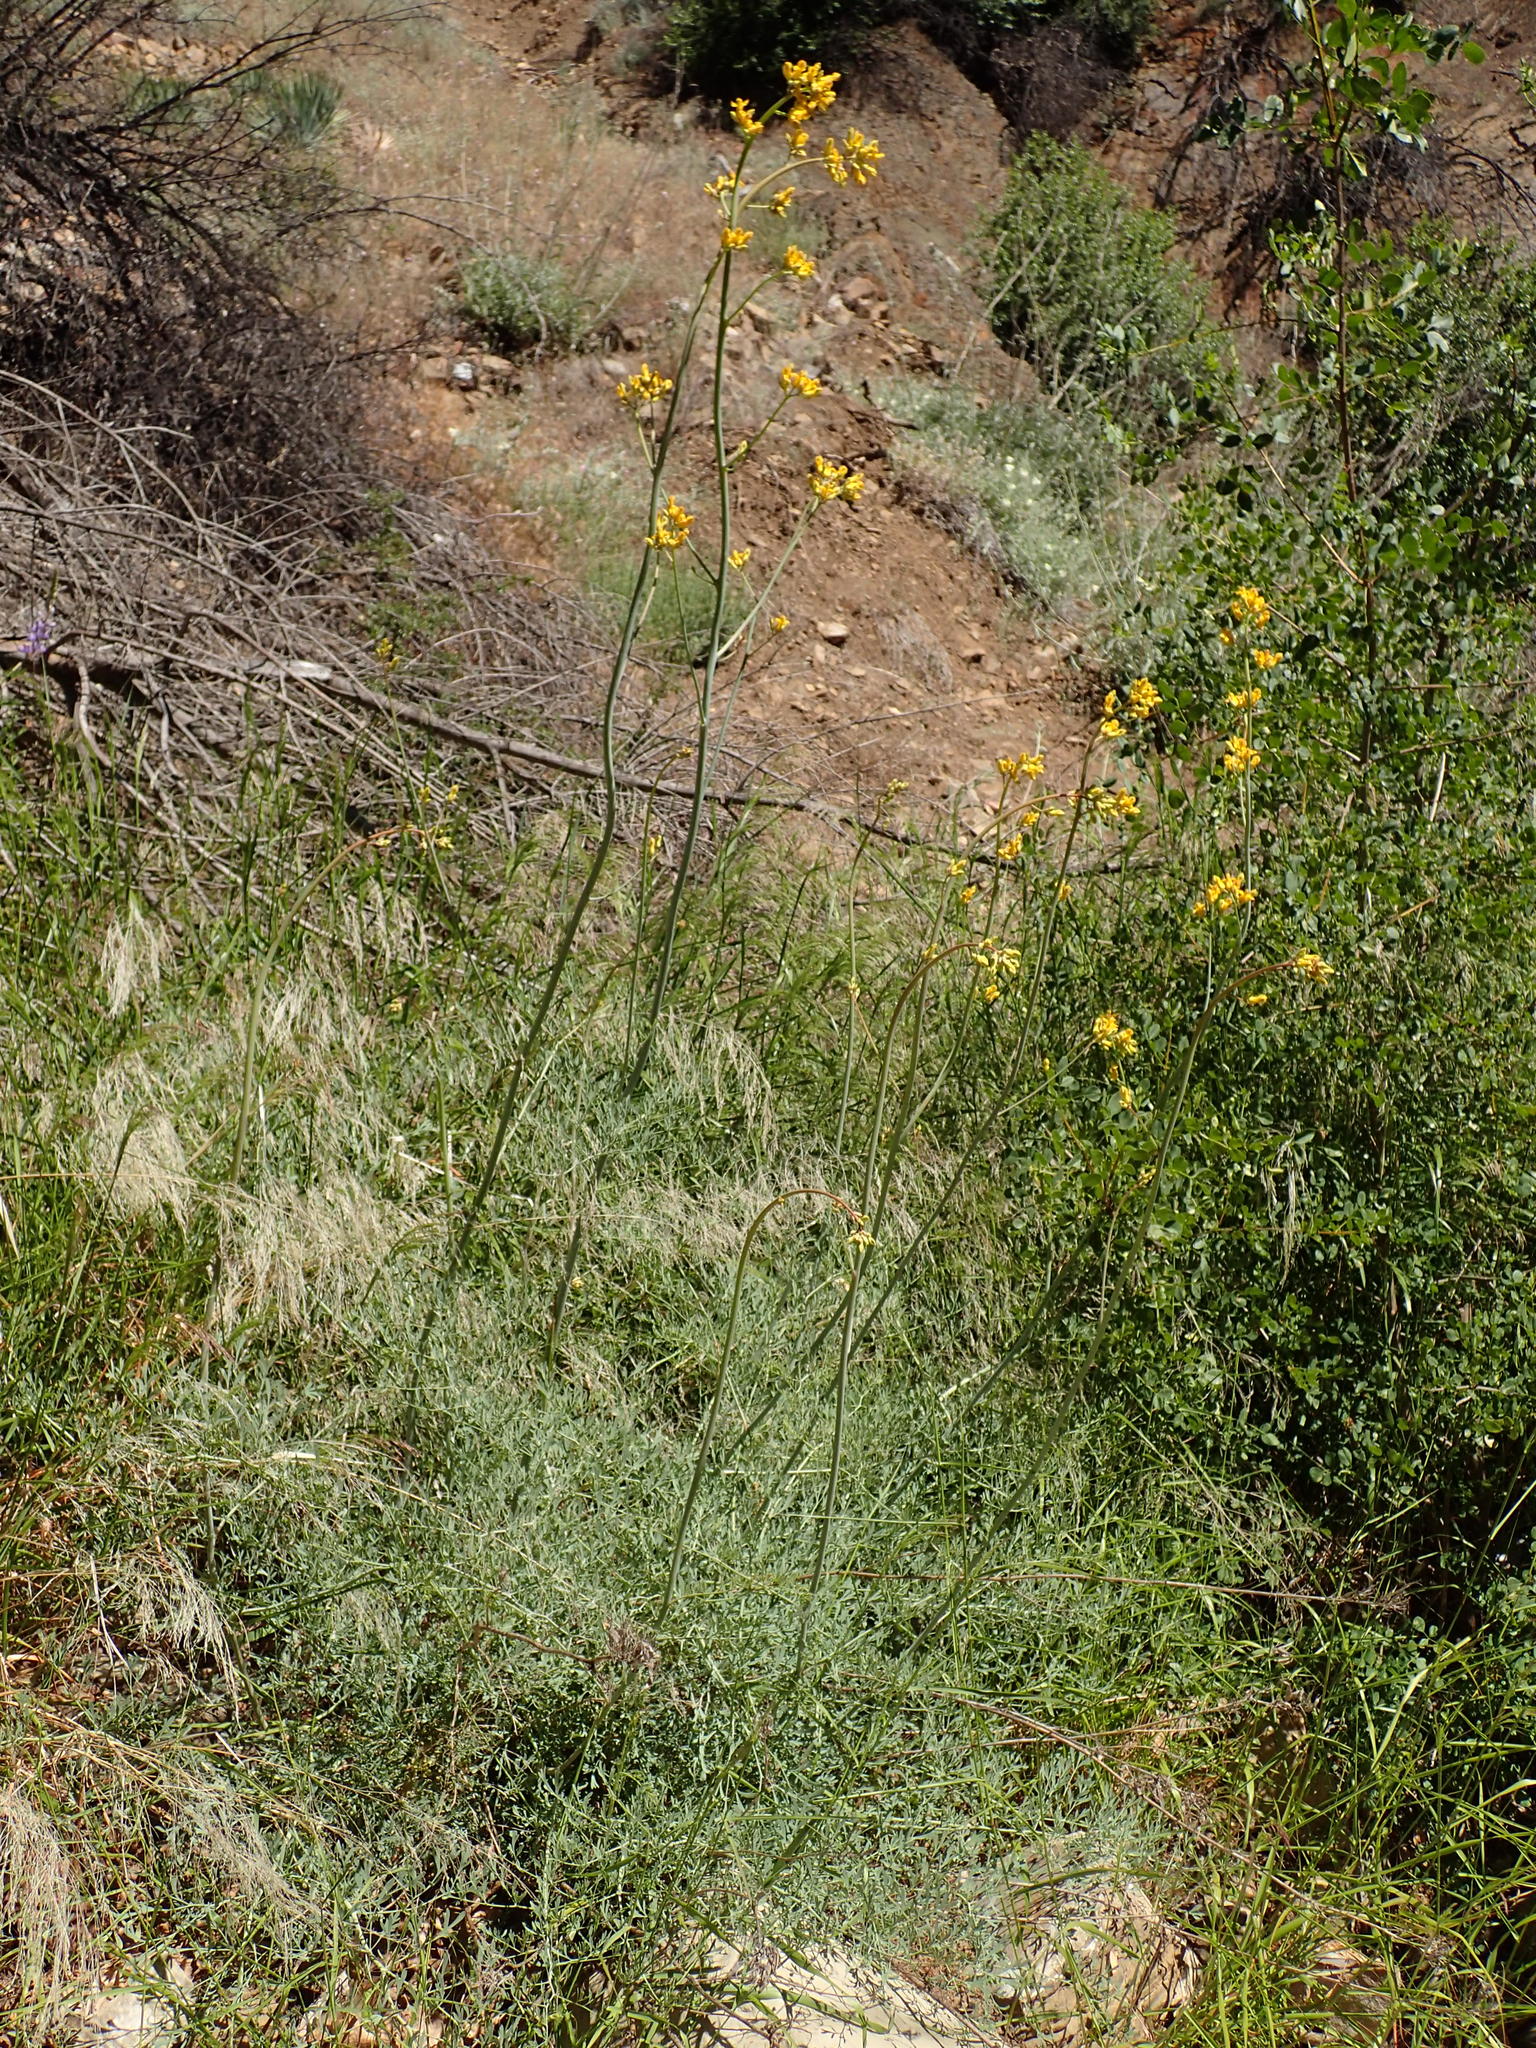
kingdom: Plantae
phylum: Tracheophyta
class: Magnoliopsida
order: Ranunculales
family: Papaveraceae
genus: Ehrendorferia
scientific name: Ehrendorferia chrysantha
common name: Golden eardrops
